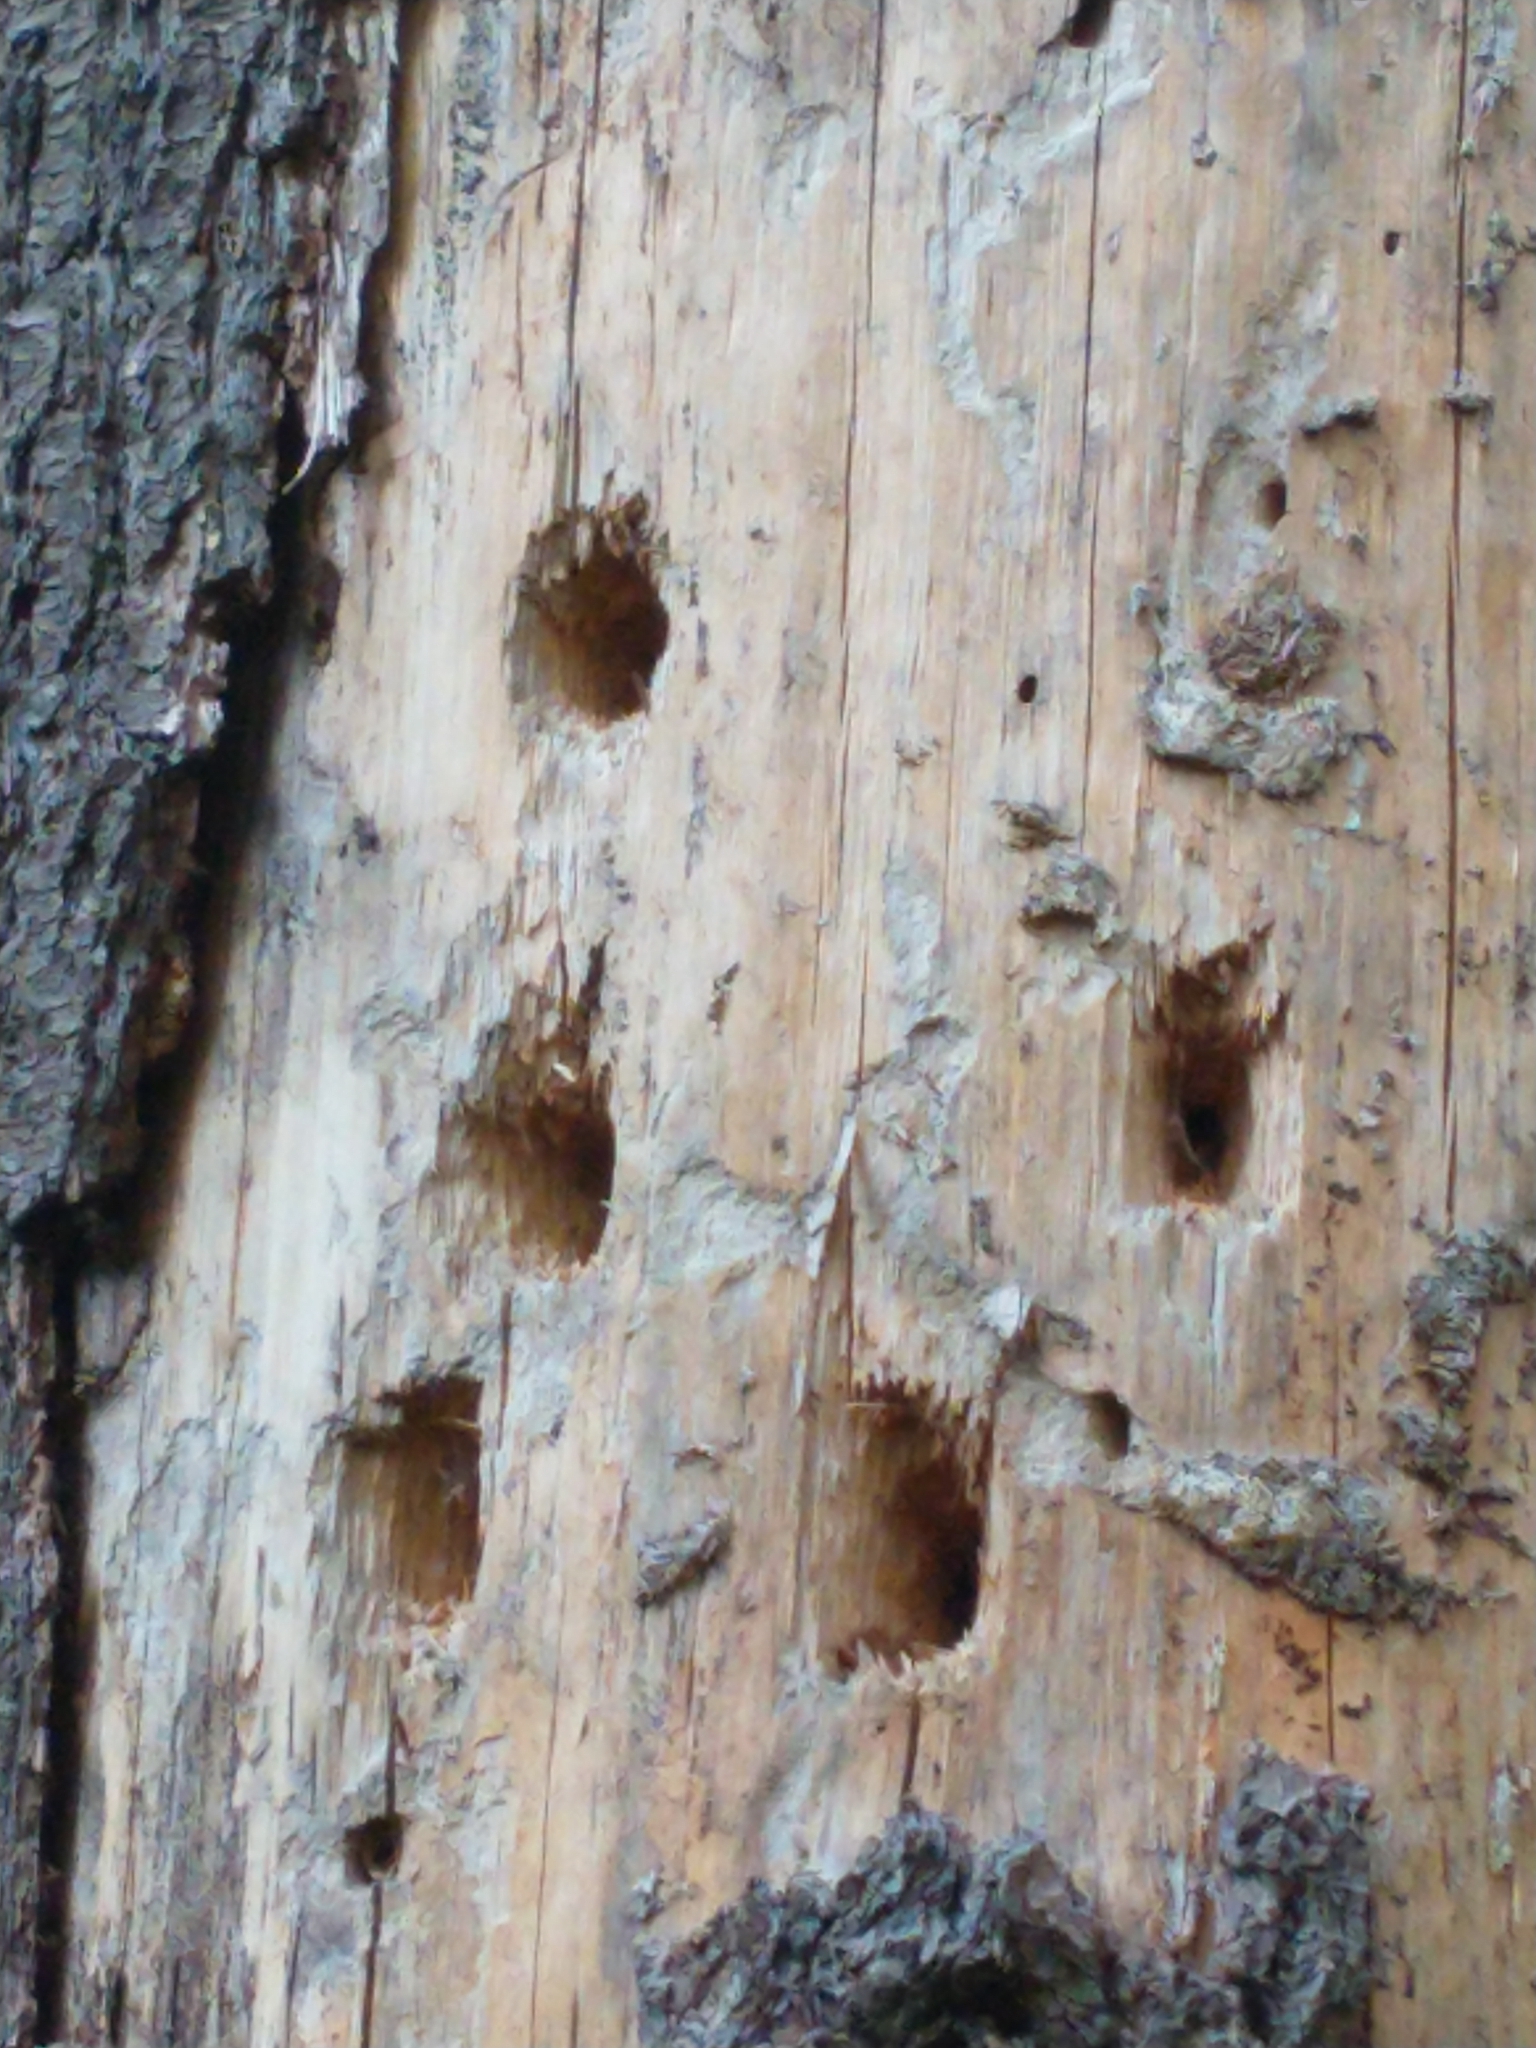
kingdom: Animalia
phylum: Chordata
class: Aves
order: Piciformes
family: Picidae
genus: Dryocopus
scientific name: Dryocopus pileatus
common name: Pileated woodpecker
